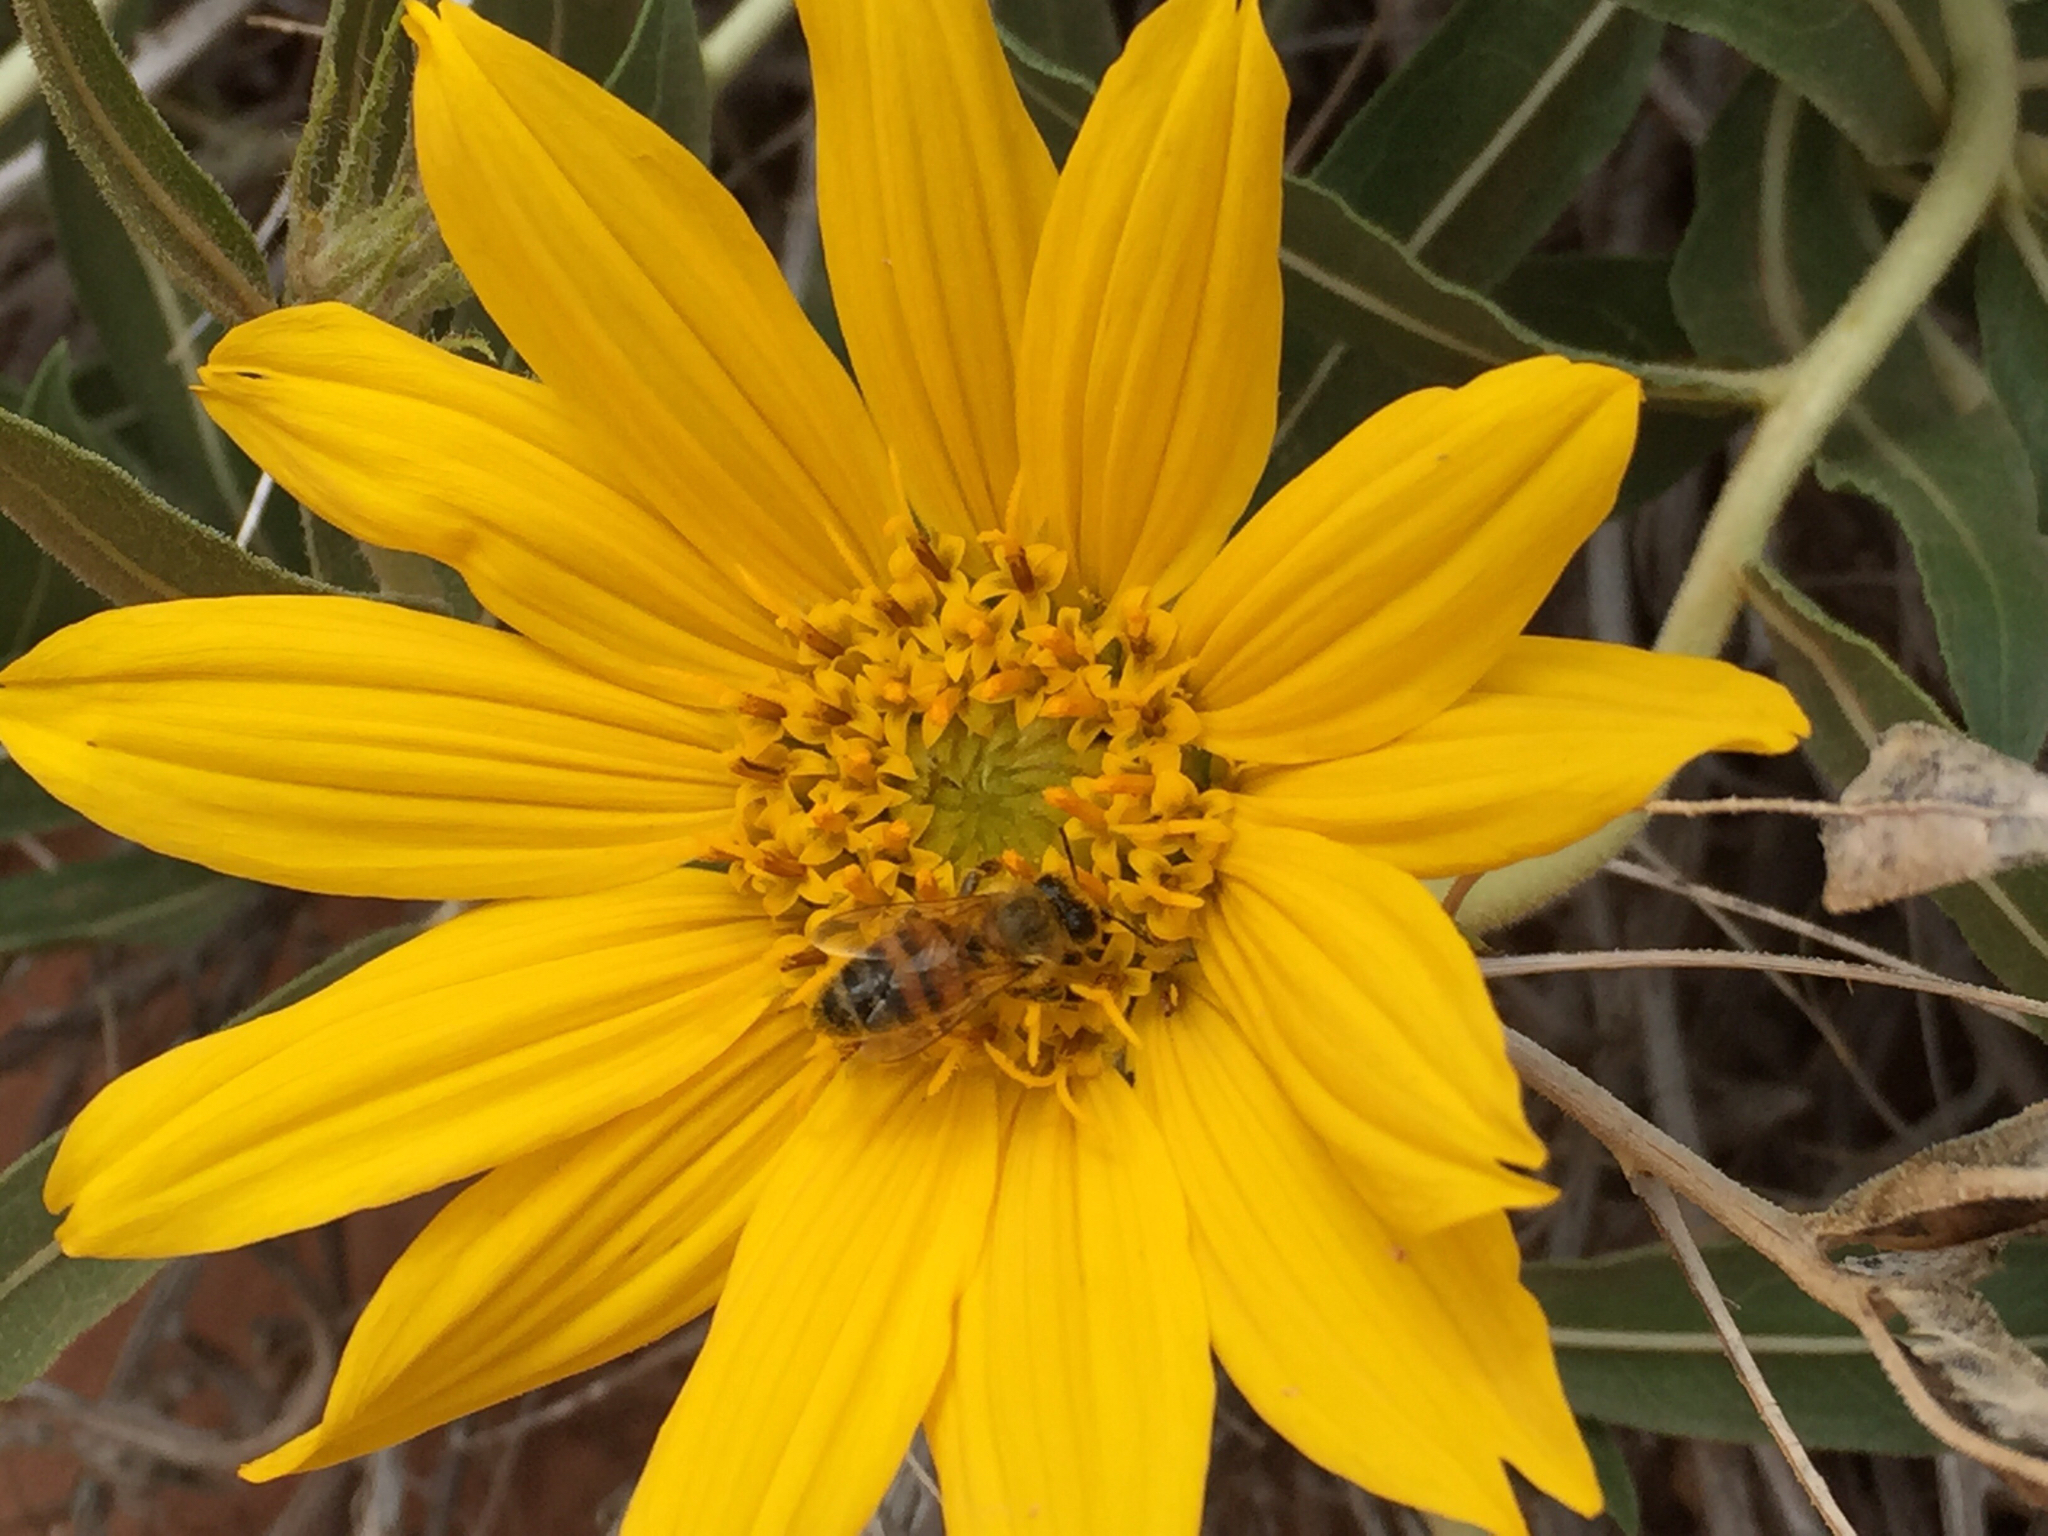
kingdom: Animalia
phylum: Arthropoda
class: Insecta
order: Hymenoptera
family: Apidae
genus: Apis
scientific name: Apis mellifera
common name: Honey bee
